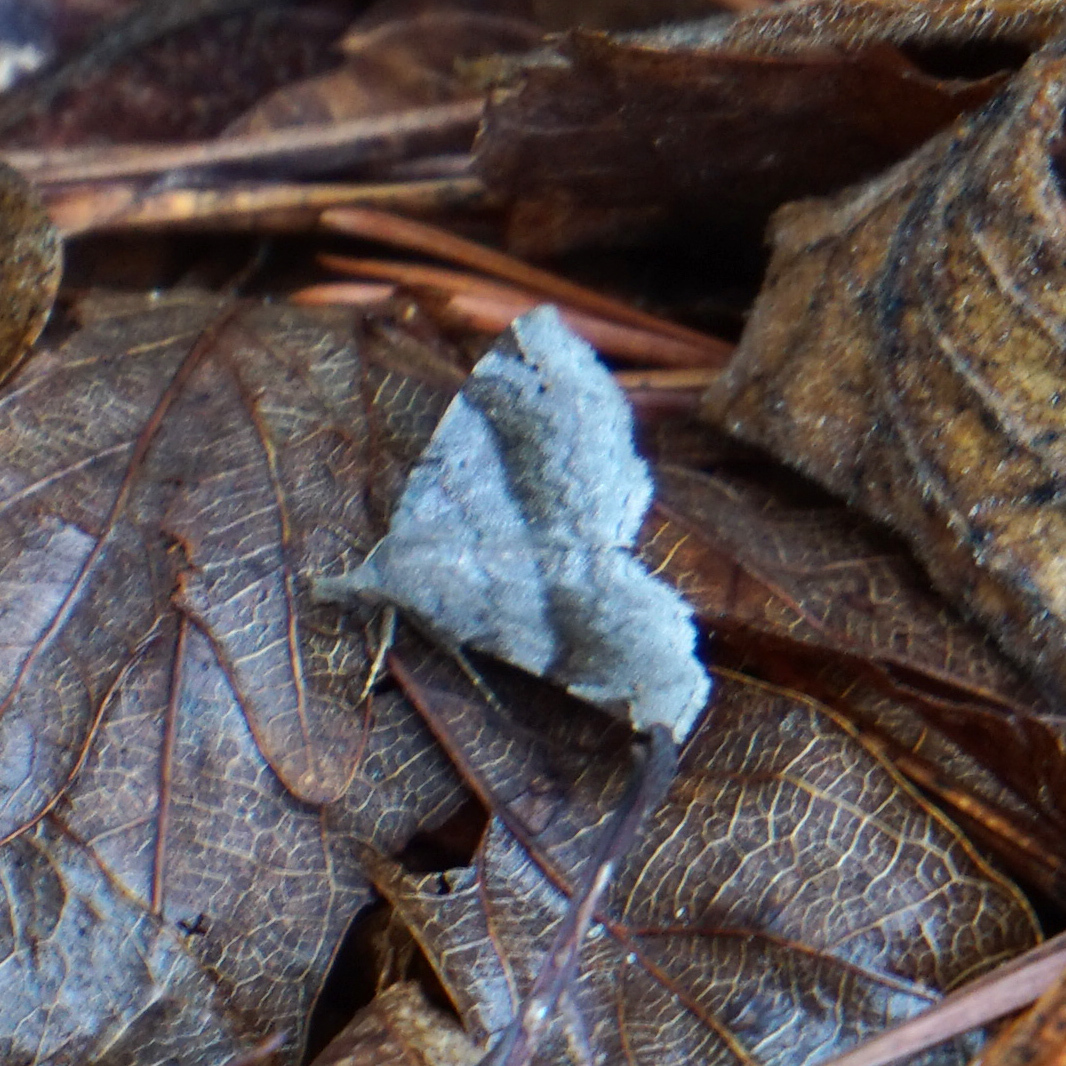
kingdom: Animalia
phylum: Arthropoda
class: Insecta
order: Lepidoptera
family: Erebidae
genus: Spargaloma
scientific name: Spargaloma sexpunctata
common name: Six-spotted gray
